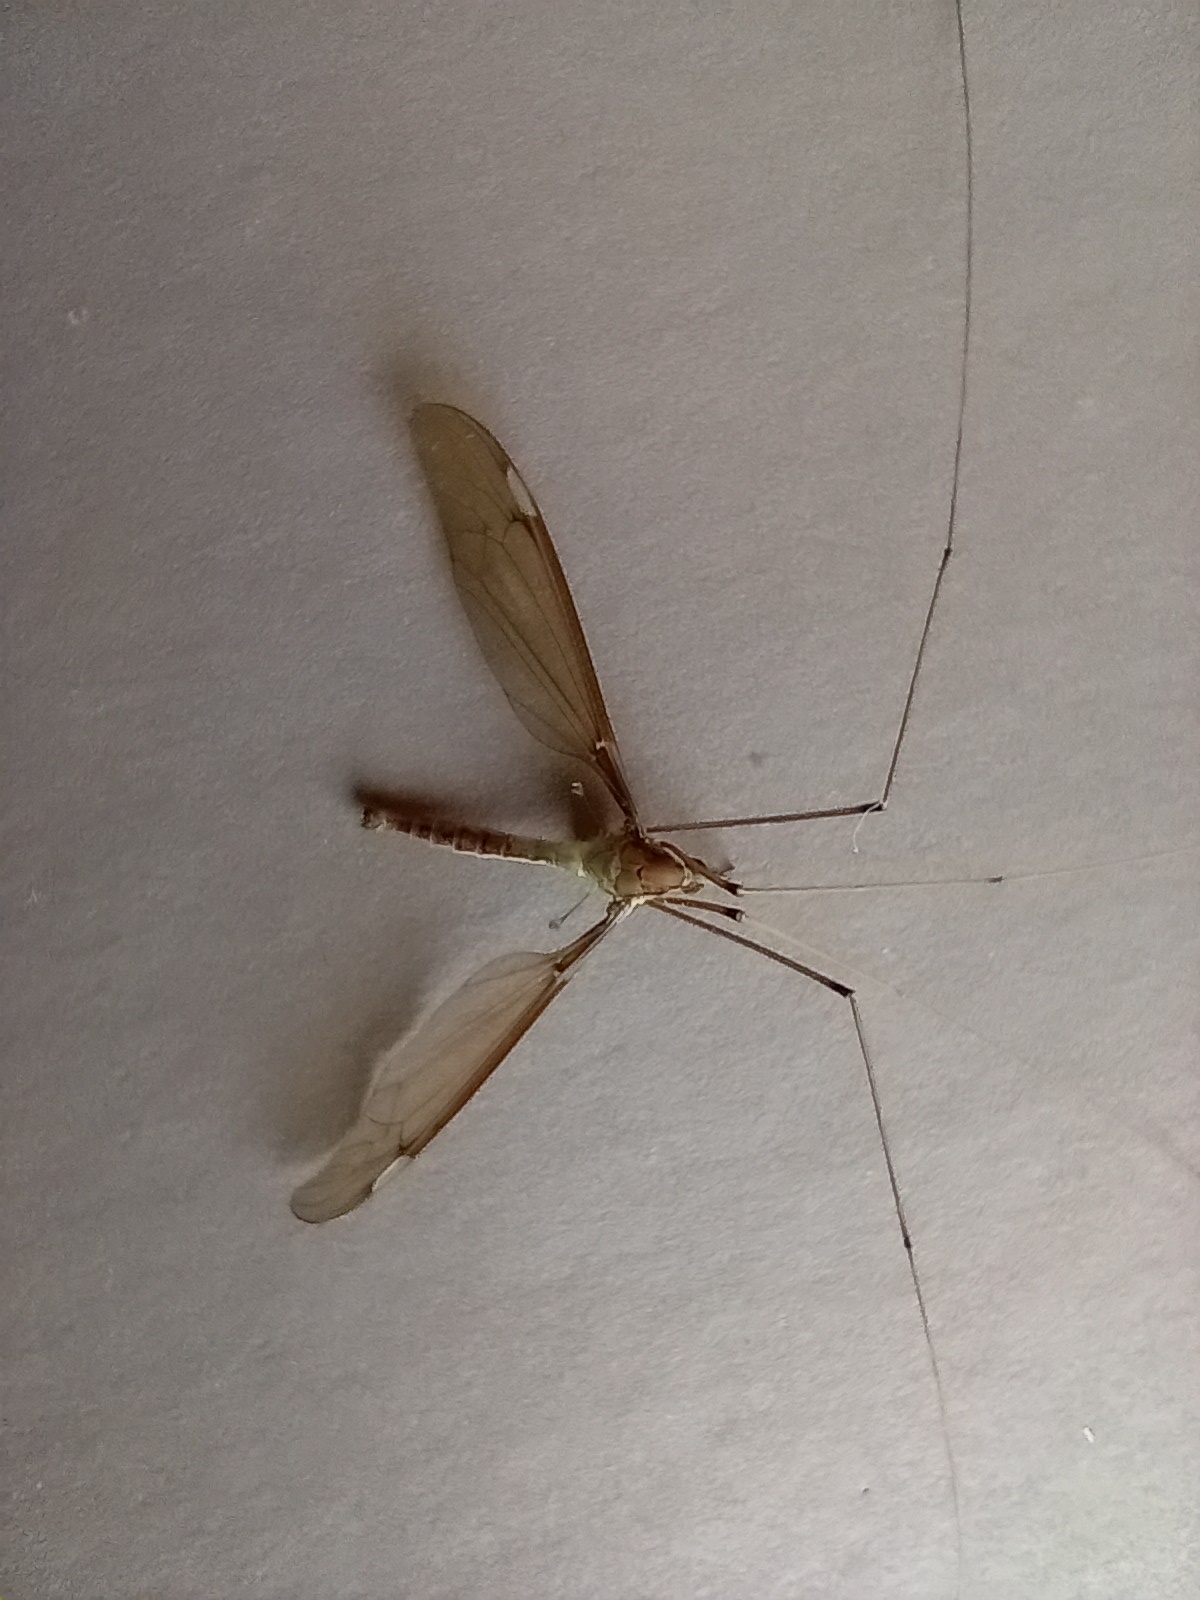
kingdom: Animalia
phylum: Arthropoda
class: Insecta
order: Diptera
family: Tipulidae
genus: Leptotarsus
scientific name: Leptotarsus albistigma
